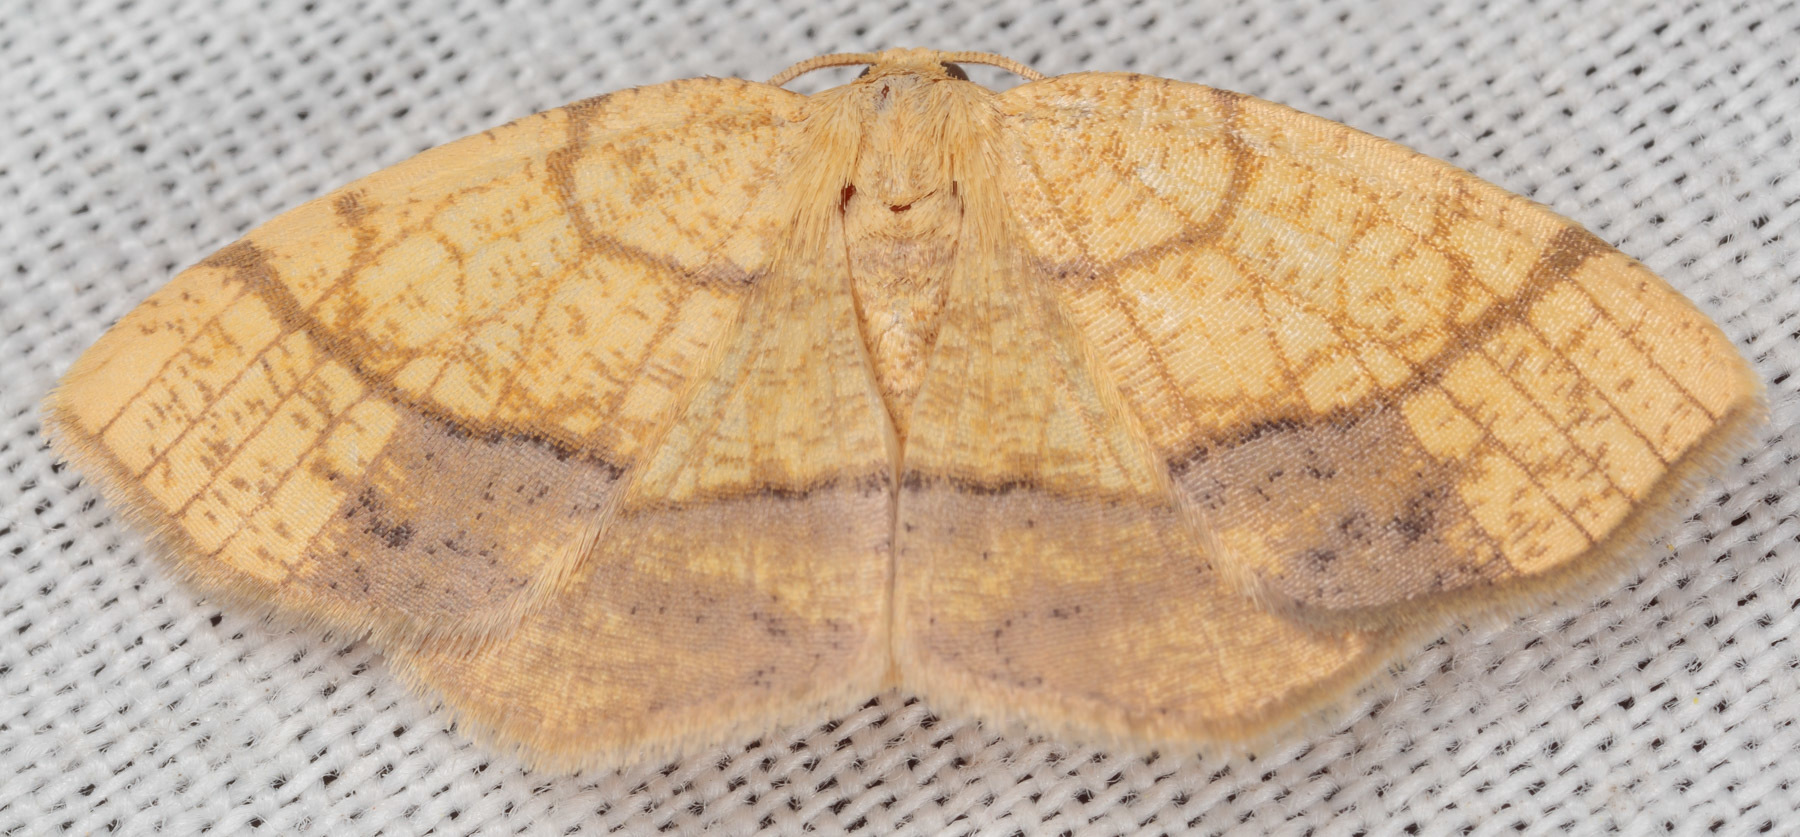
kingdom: Animalia
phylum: Arthropoda
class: Insecta
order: Lepidoptera
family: Geometridae
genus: Nematocampa
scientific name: Nematocampa resistaria
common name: Horned spanworm moth
